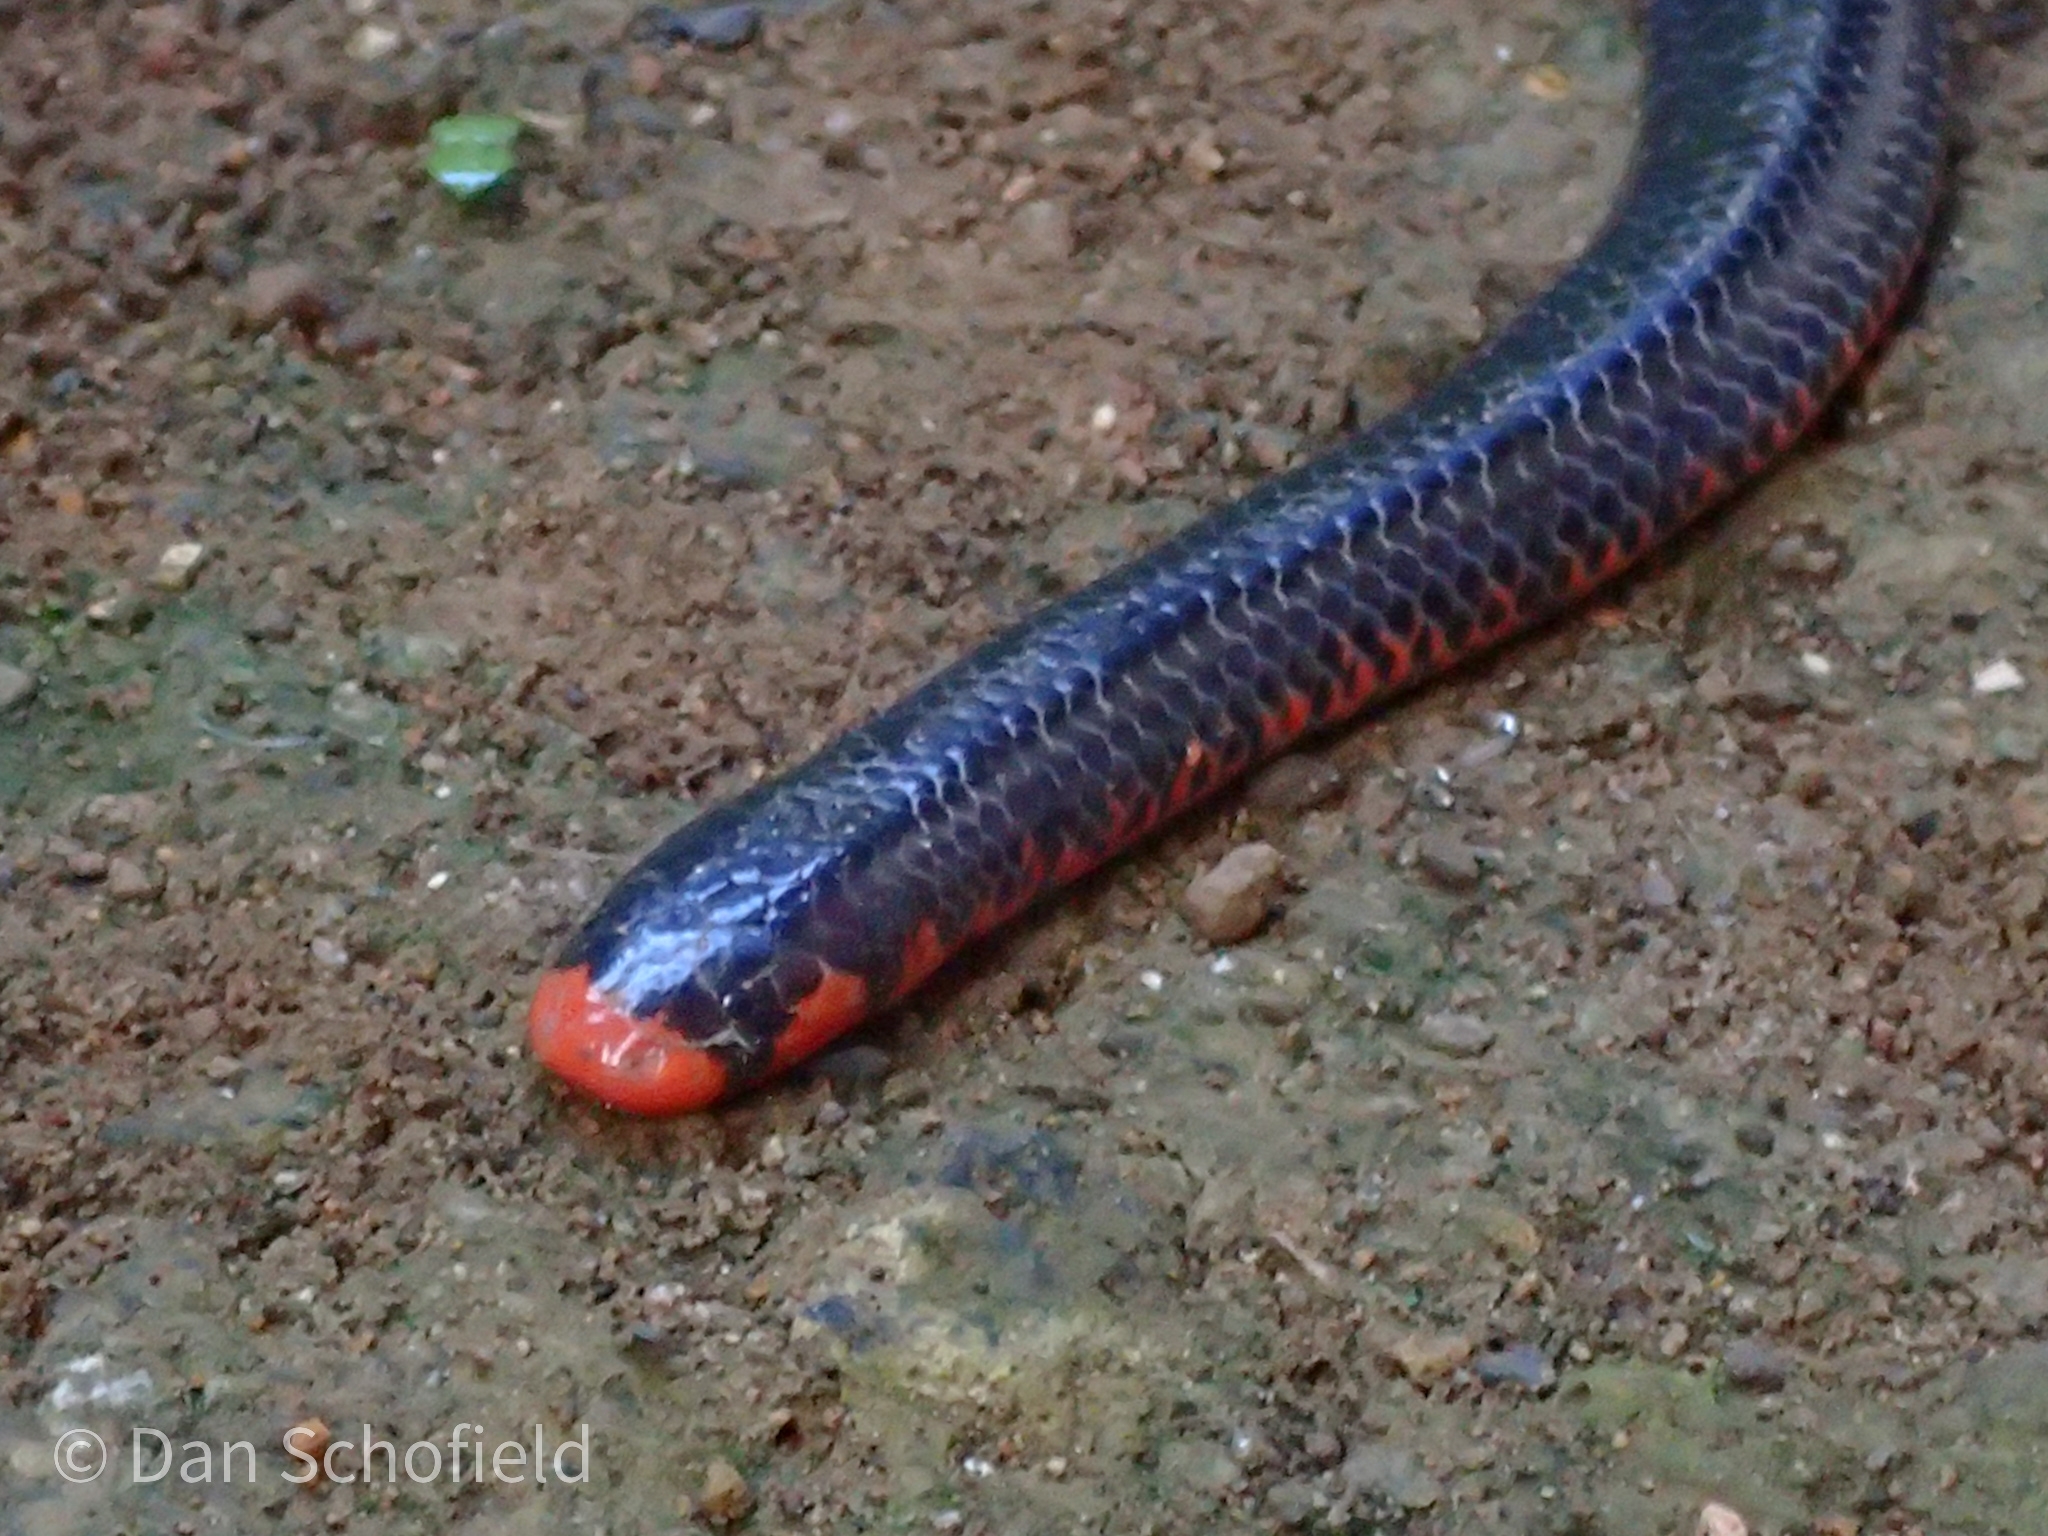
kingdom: Animalia
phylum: Chordata
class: Squamata
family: Cylindrophiidae
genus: Cylindrophis
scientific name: Cylindrophis melanotus
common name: Black pipe snake
